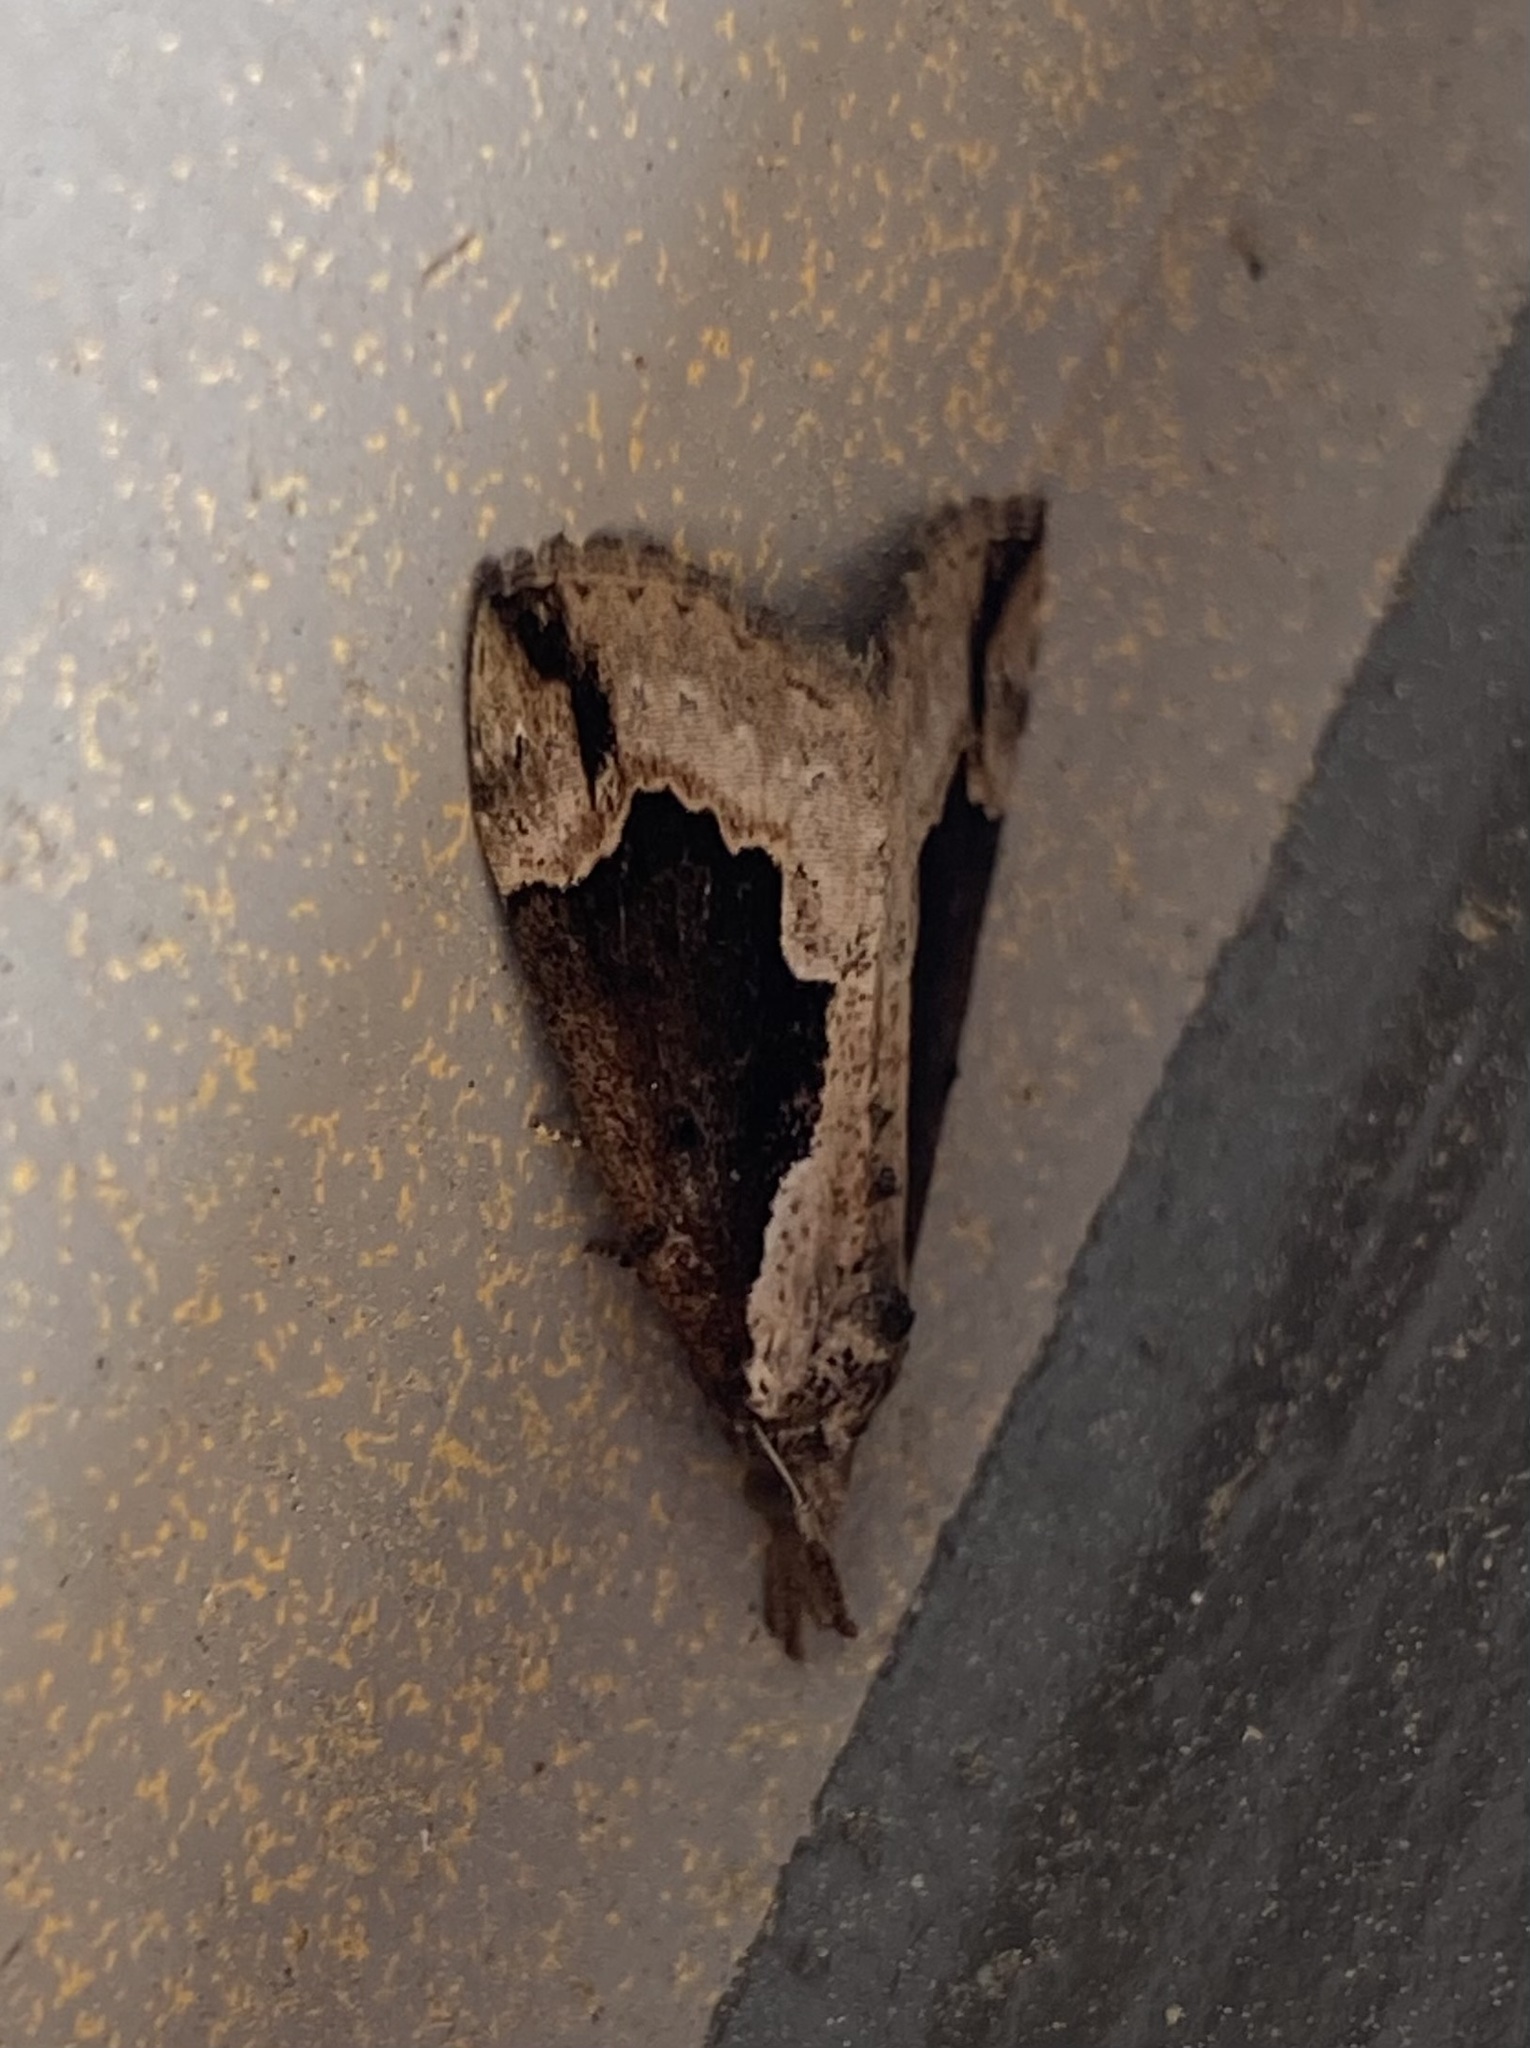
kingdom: Animalia
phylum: Arthropoda
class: Insecta
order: Lepidoptera
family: Erebidae
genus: Hypena
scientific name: Hypena baltimoralis
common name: Baltimore snout
